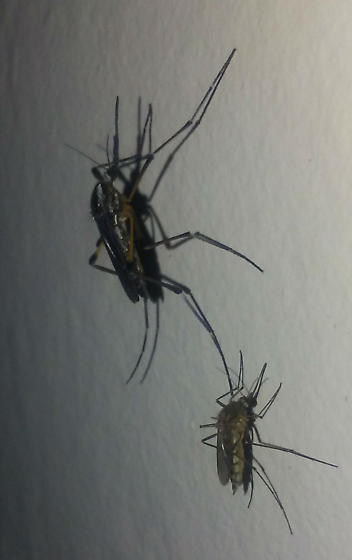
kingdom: Animalia
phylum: Arthropoda
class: Insecta
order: Diptera
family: Culicidae
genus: Psorophora
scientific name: Psorophora howardii
